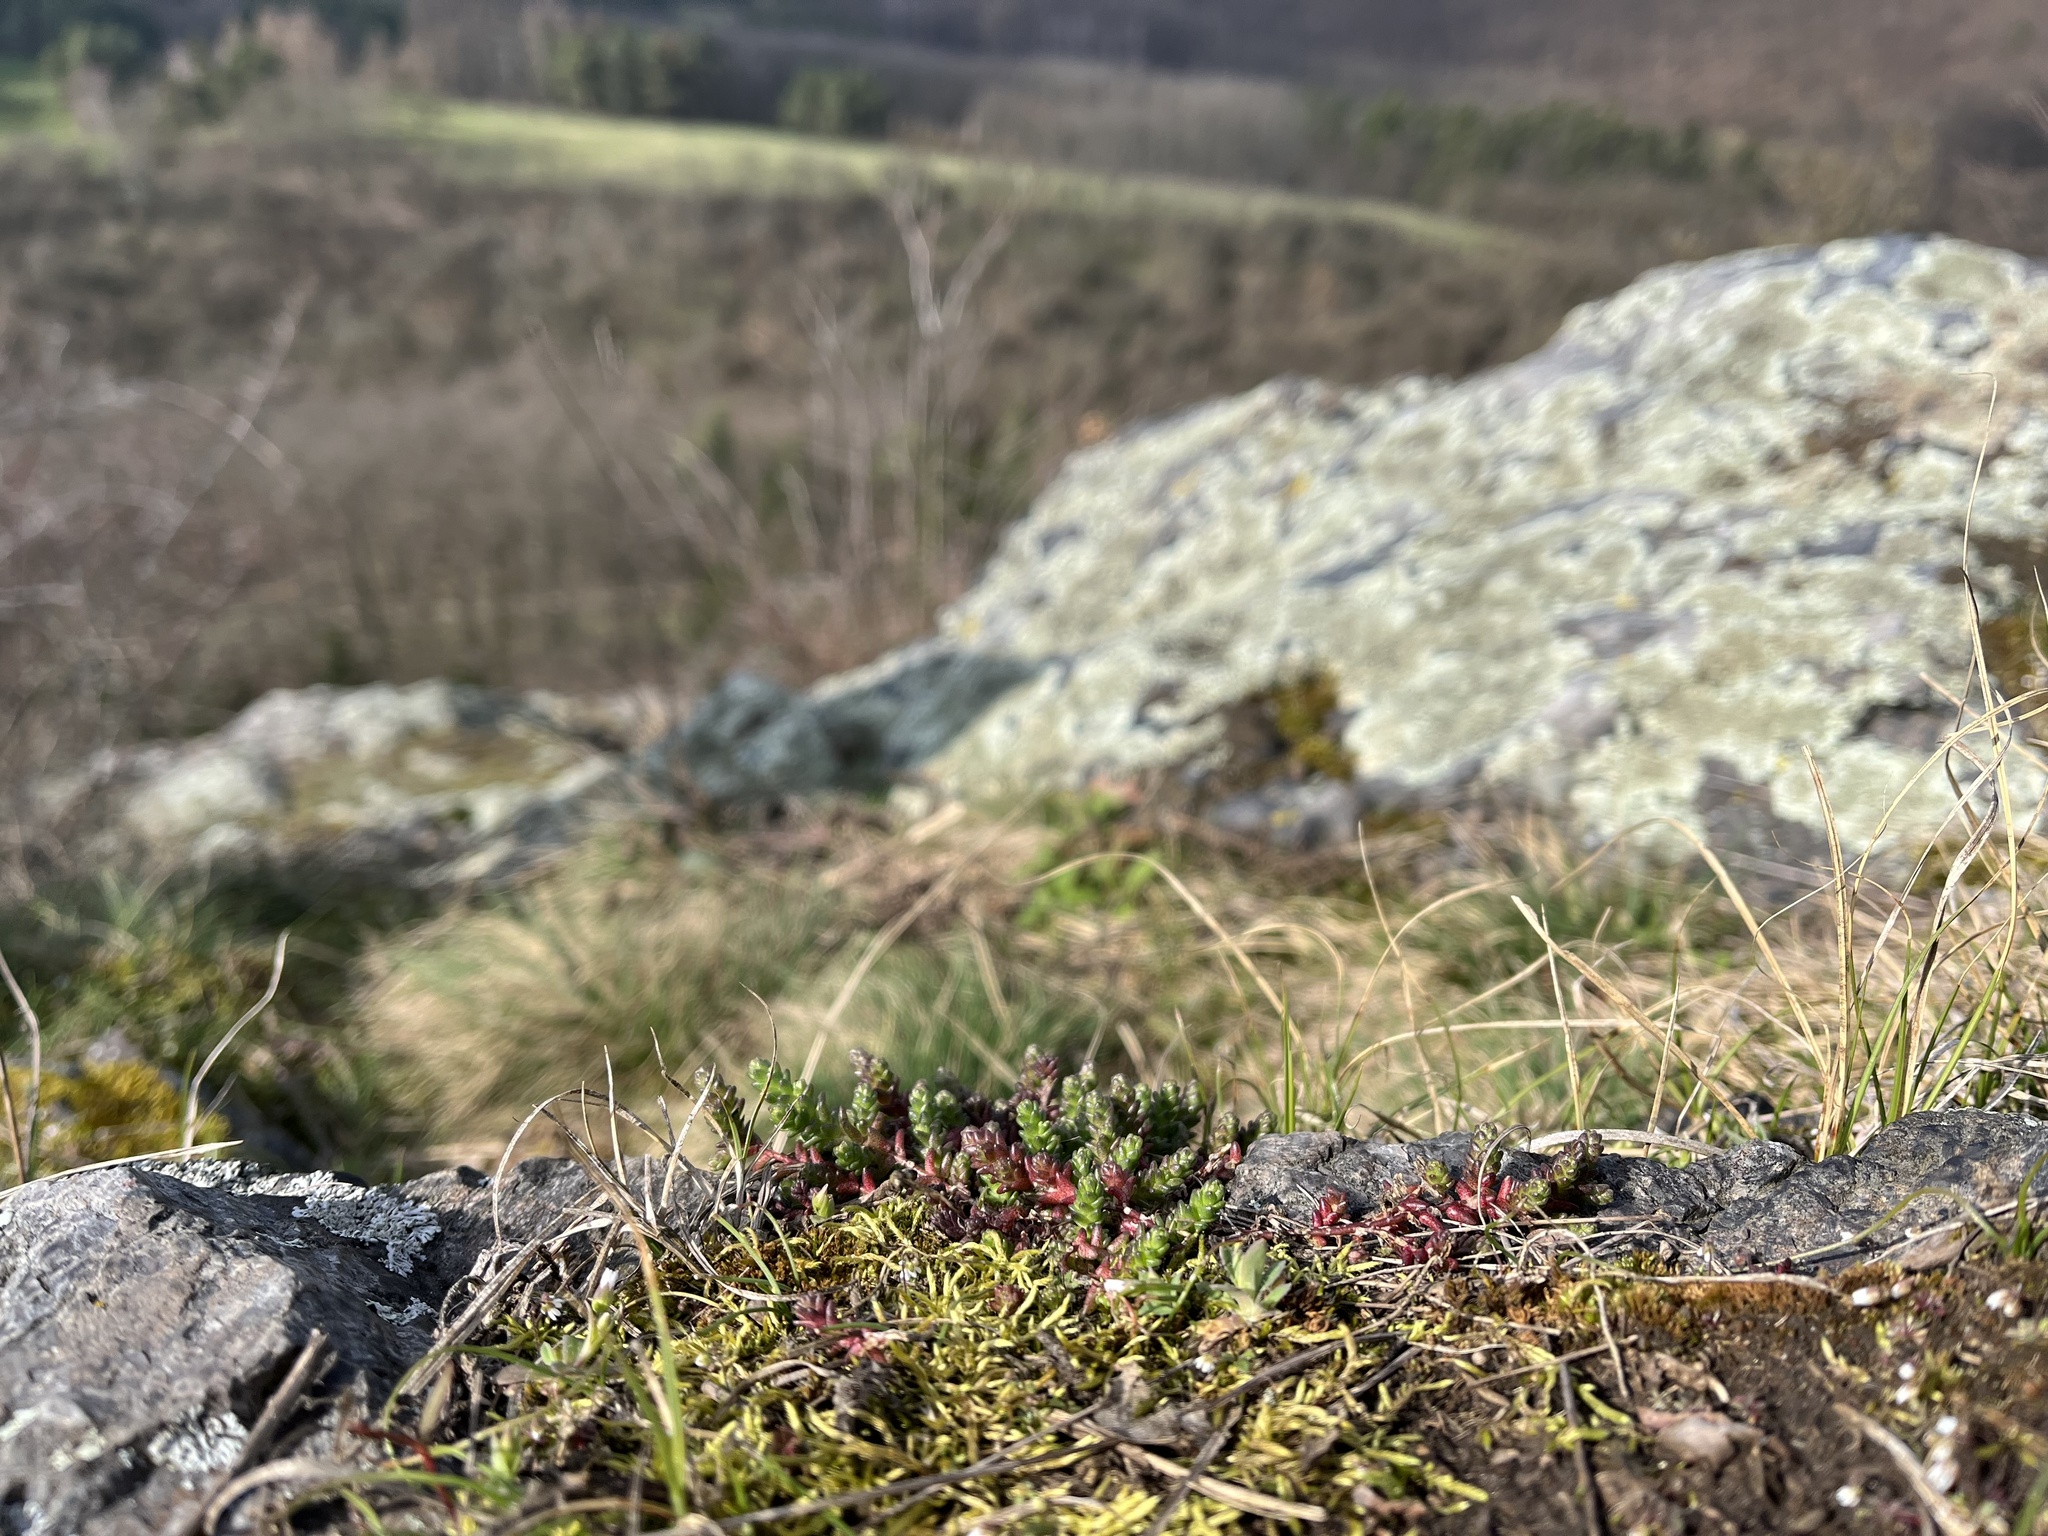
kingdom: Plantae
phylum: Tracheophyta
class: Magnoliopsida
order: Saxifragales
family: Crassulaceae
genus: Sedum
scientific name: Sedum acre
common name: Biting stonecrop
